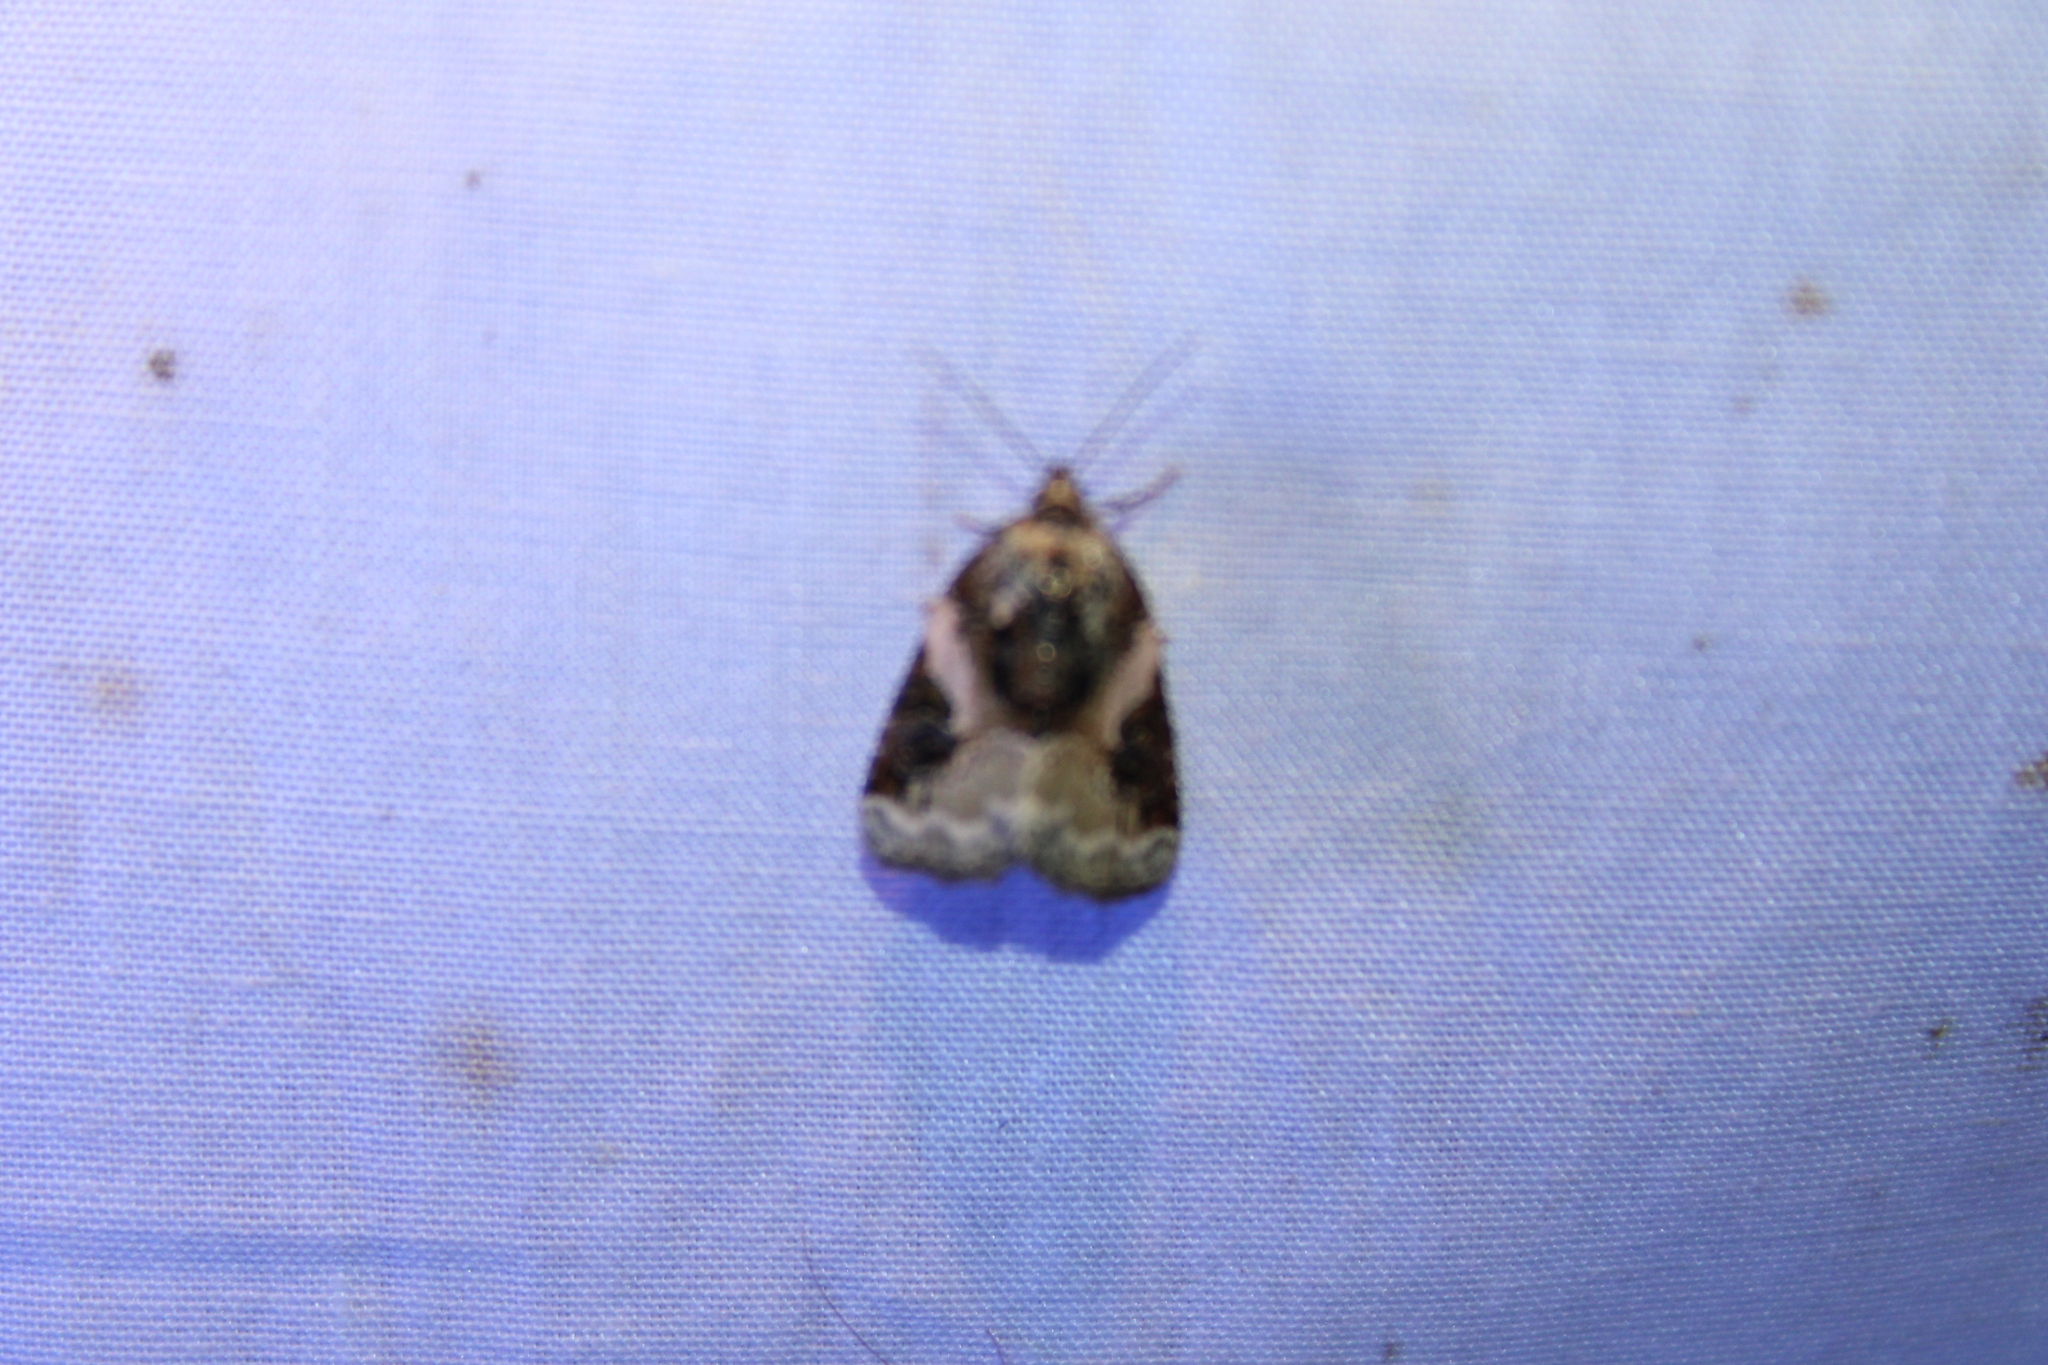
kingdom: Animalia
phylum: Arthropoda
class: Insecta
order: Lepidoptera
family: Noctuidae
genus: Pseudeustrotia
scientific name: Pseudeustrotia carneola
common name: Pink-barred lithacodia moth
